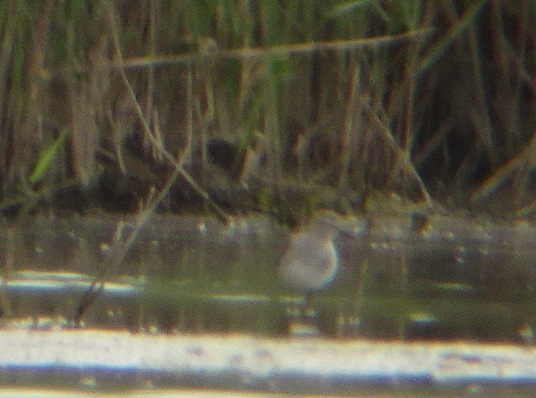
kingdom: Animalia
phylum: Chordata
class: Aves
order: Charadriiformes
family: Scolopacidae
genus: Tringa
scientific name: Tringa glareola
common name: Wood sandpiper
